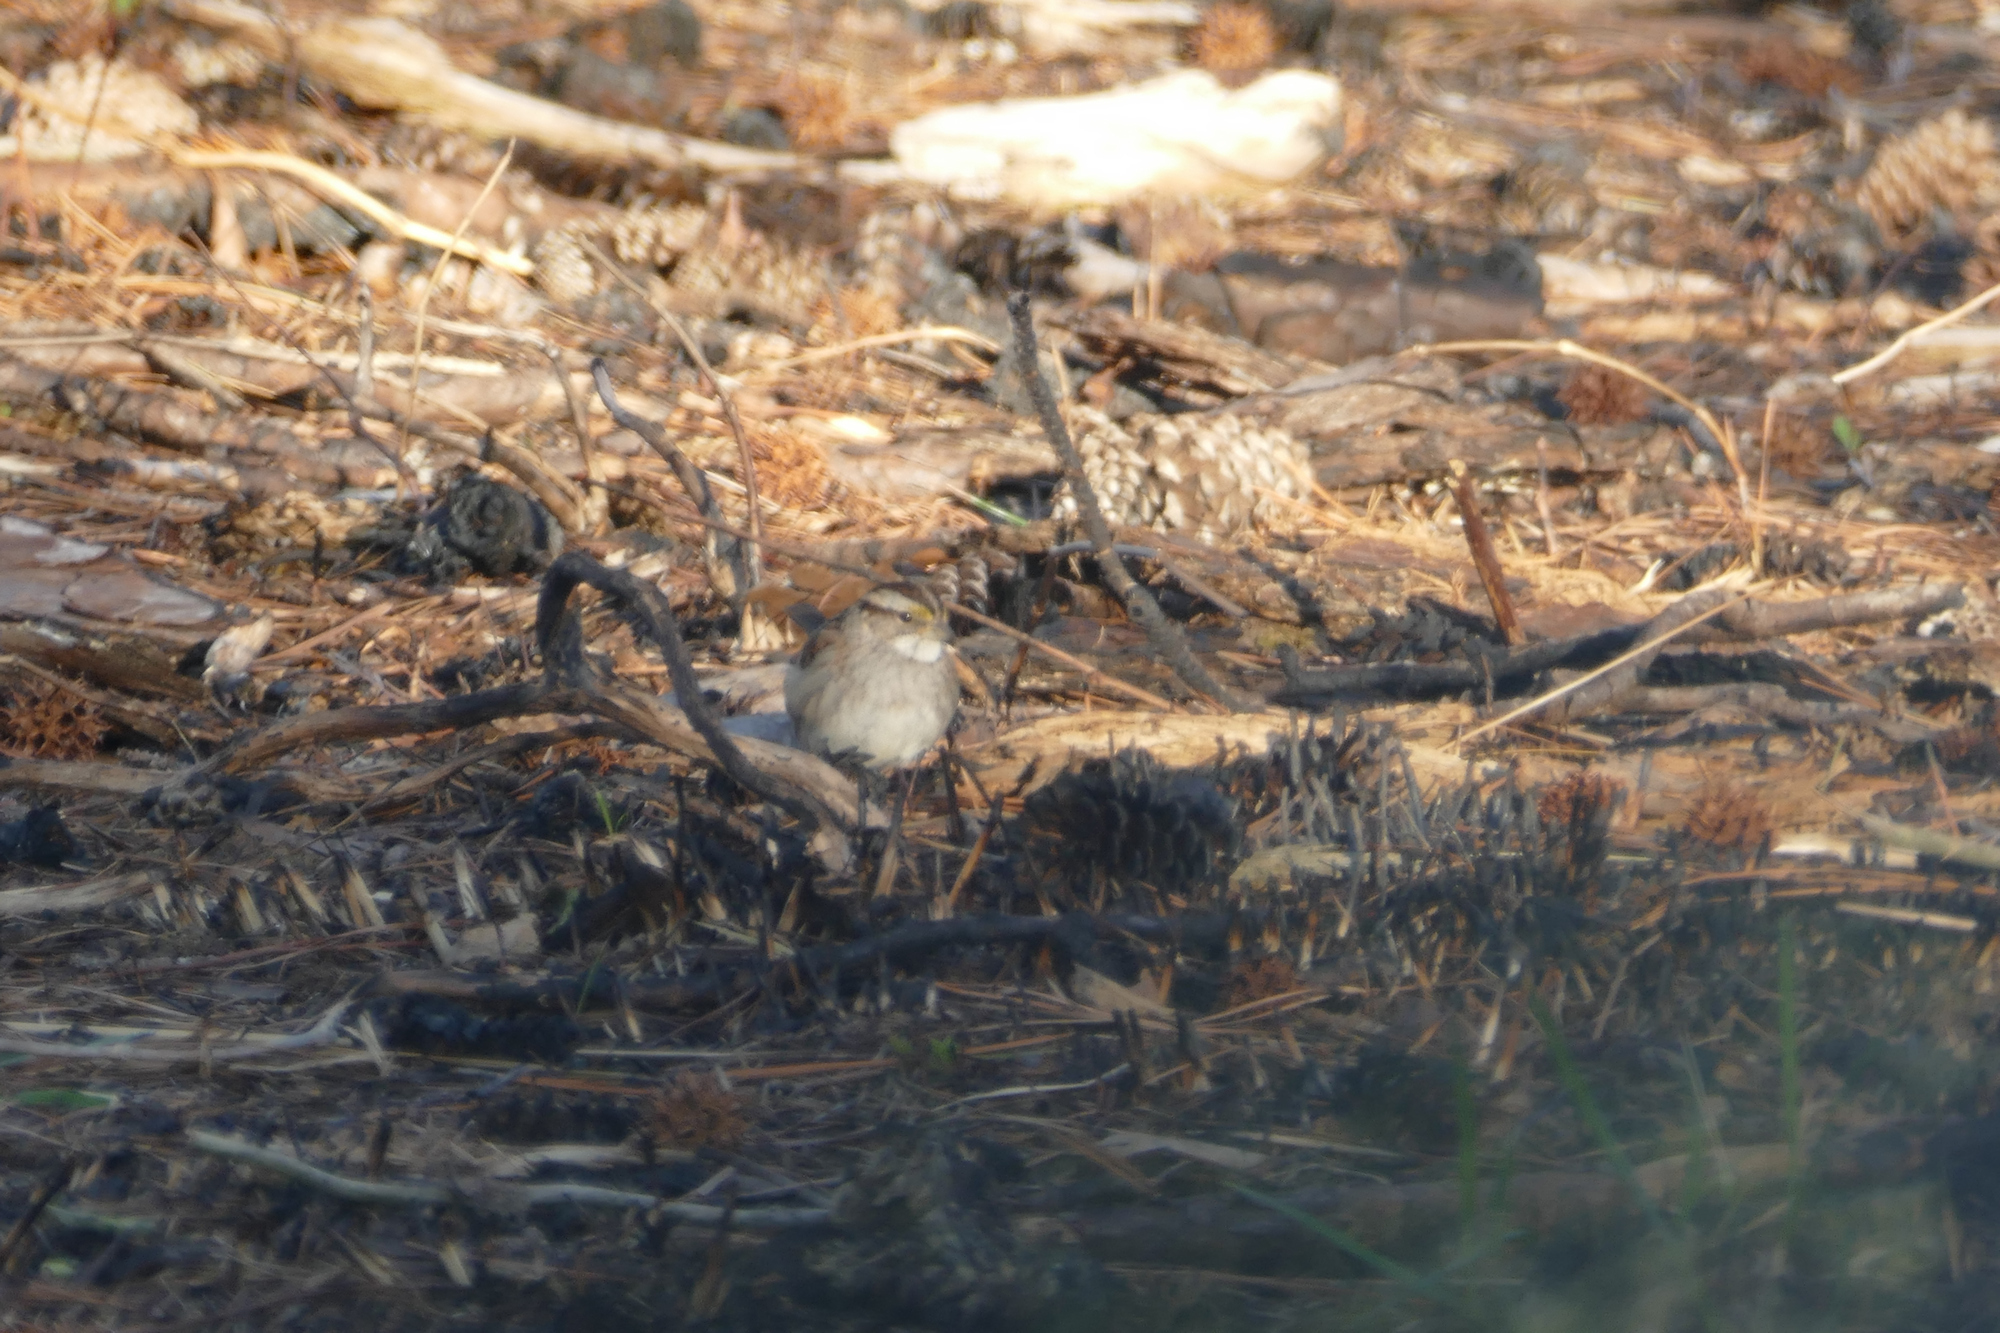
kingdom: Animalia
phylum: Chordata
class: Aves
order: Passeriformes
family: Passerellidae
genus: Zonotrichia
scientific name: Zonotrichia albicollis
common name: White-throated sparrow
